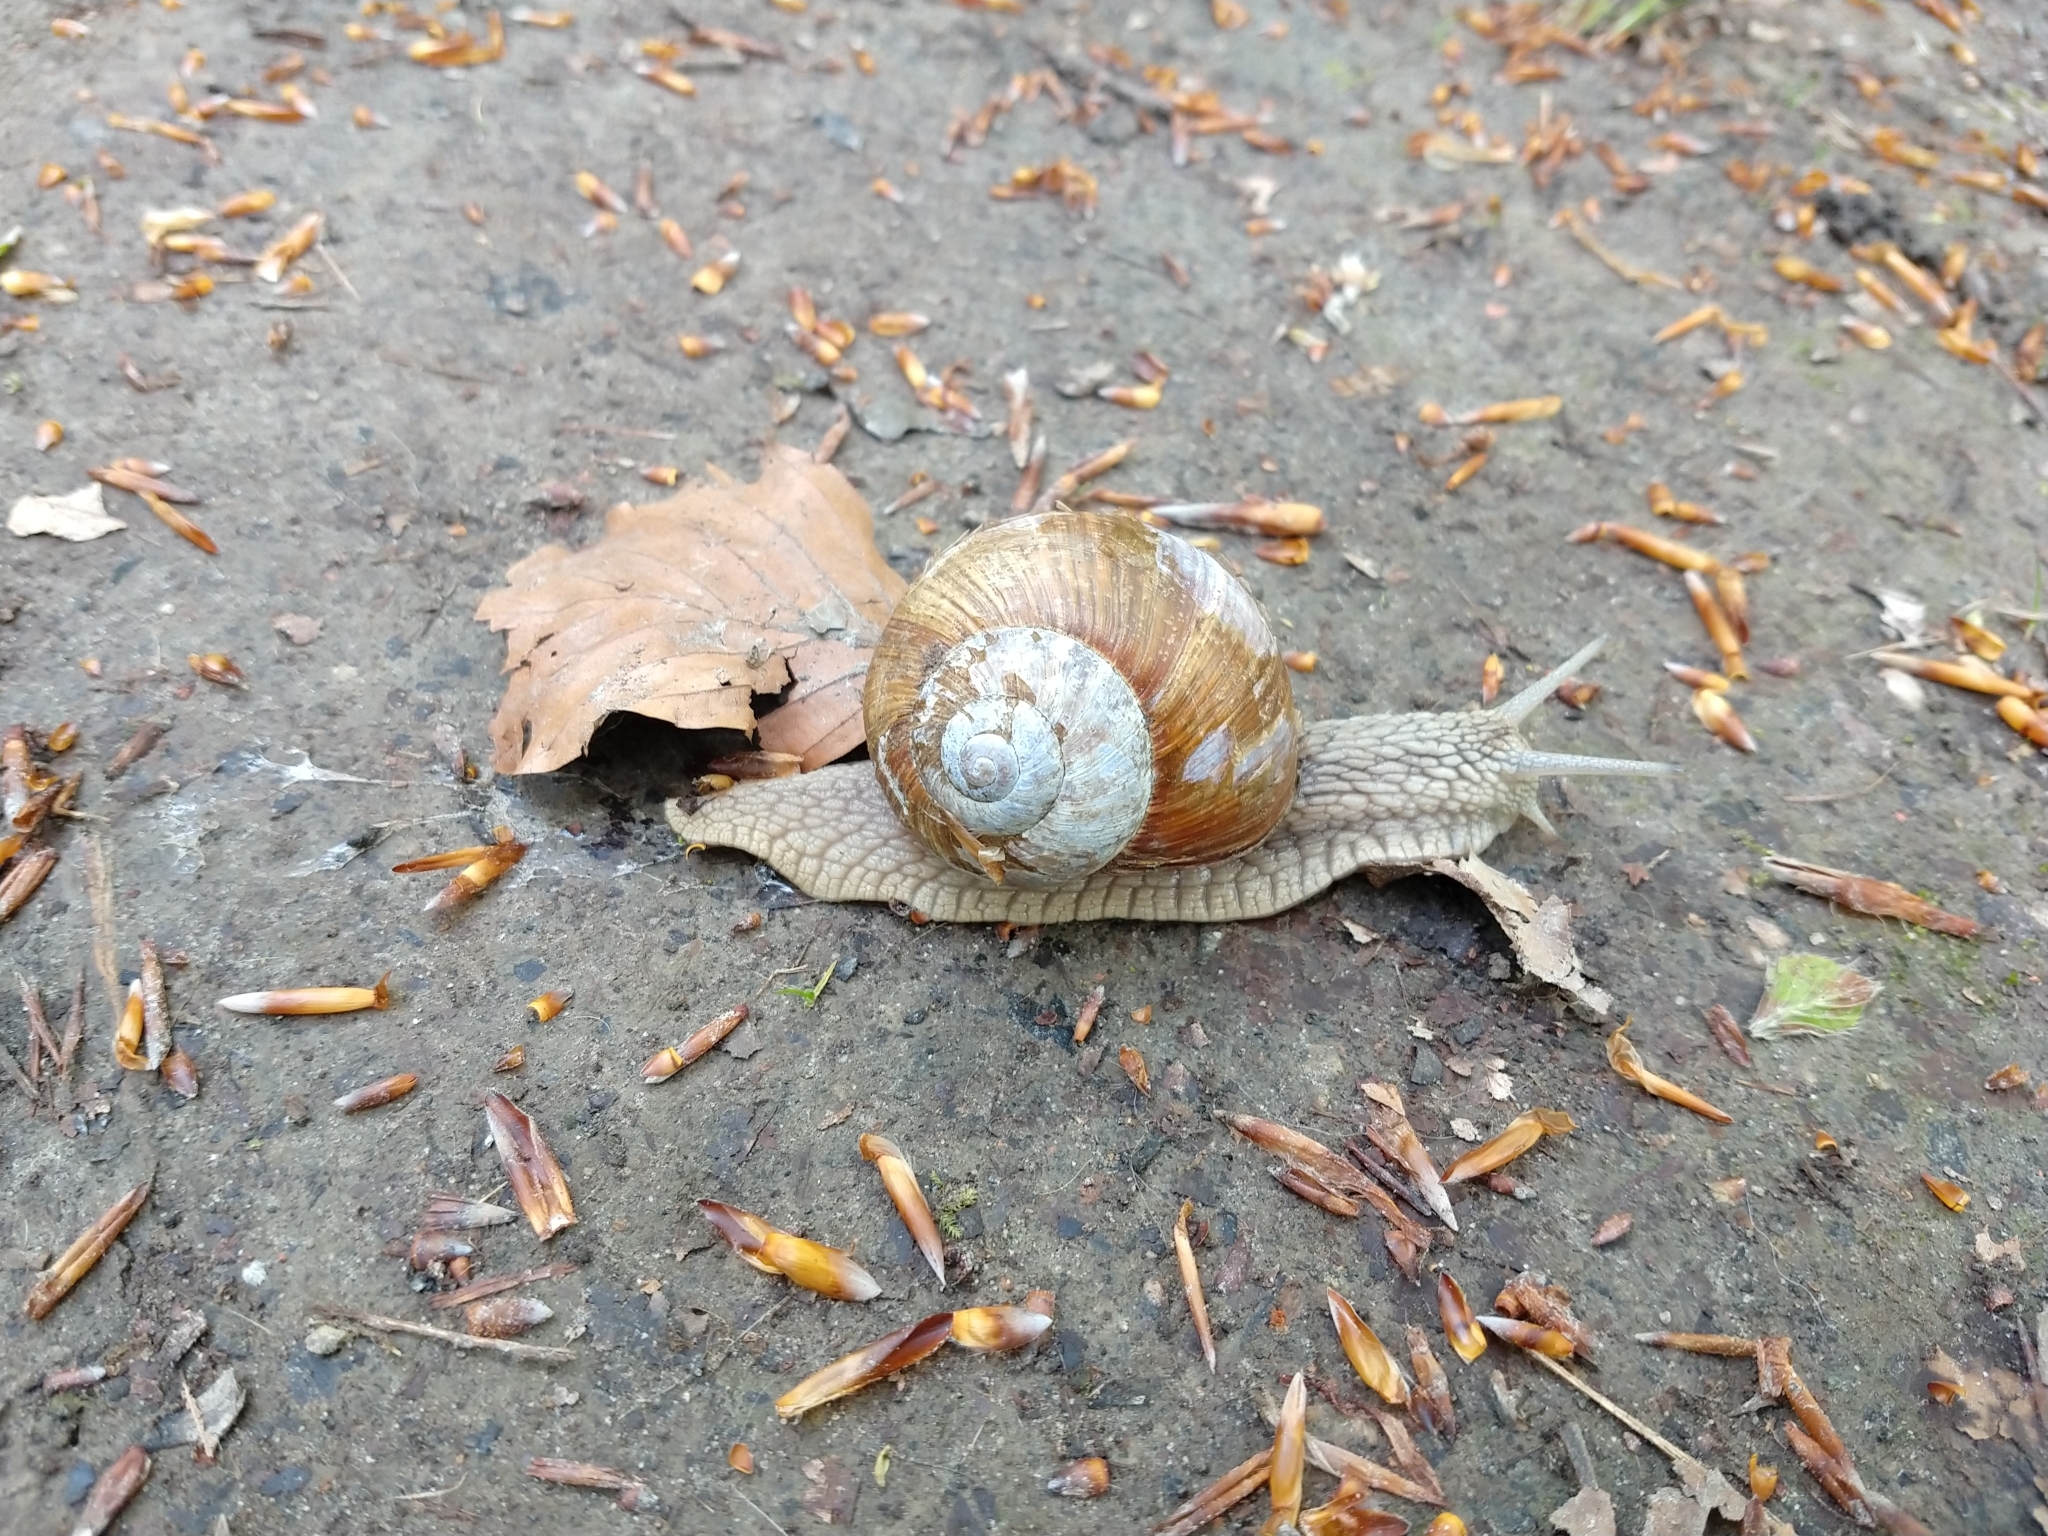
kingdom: Animalia
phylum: Mollusca
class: Gastropoda
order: Stylommatophora
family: Helicidae
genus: Helix
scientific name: Helix pomatia
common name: Roman snail
